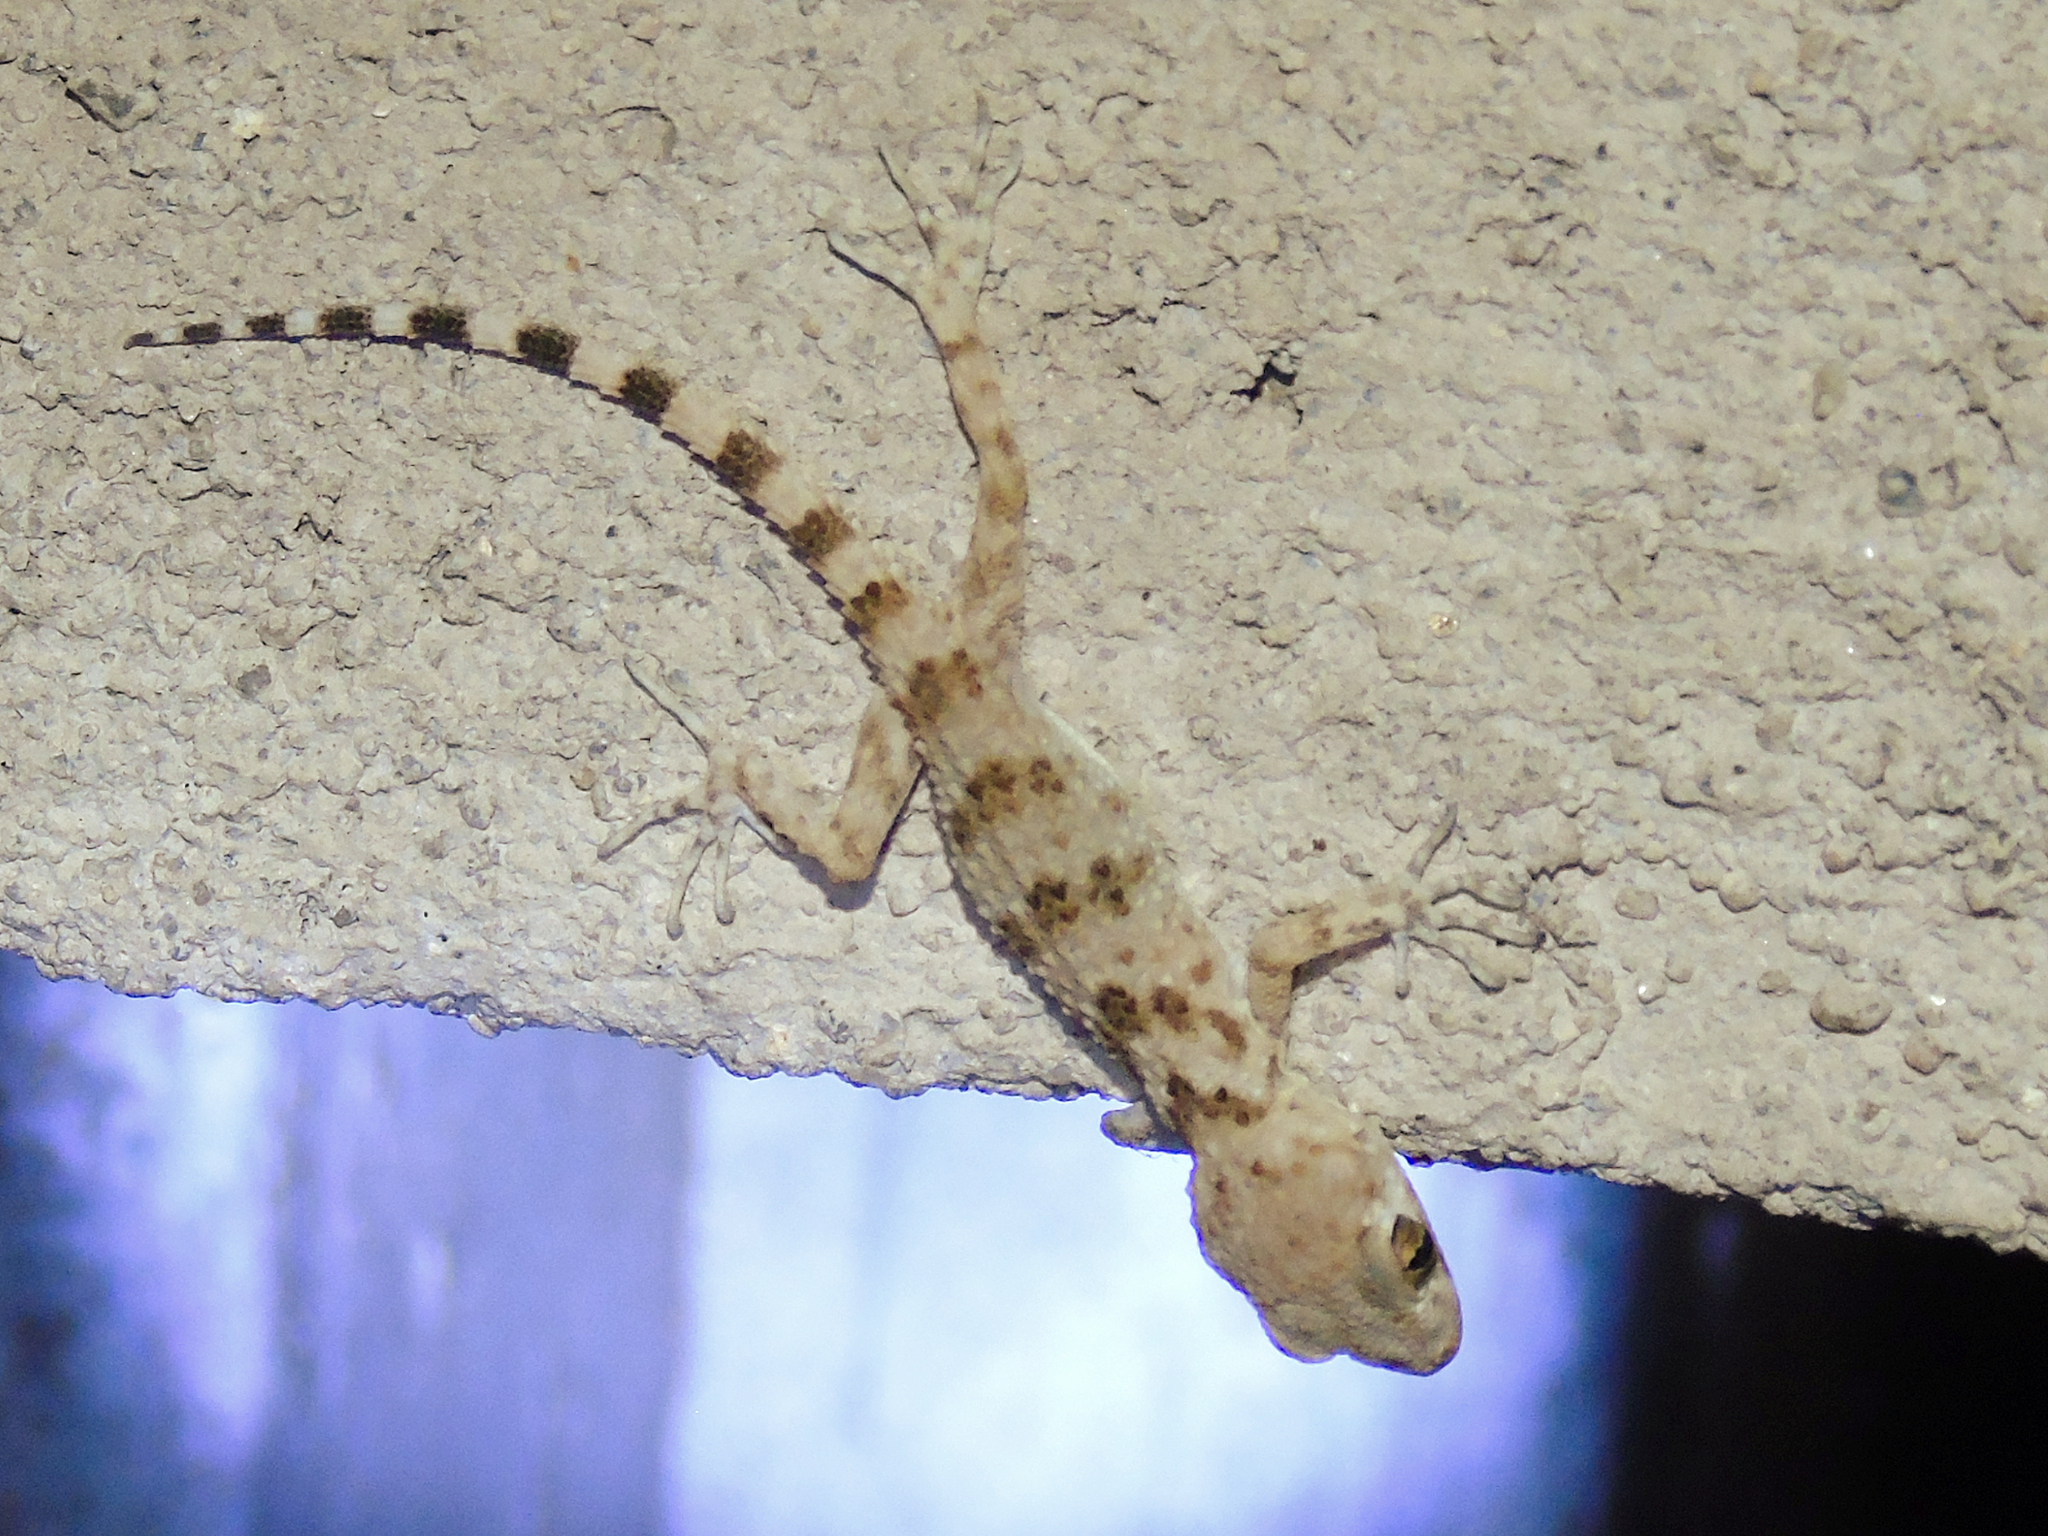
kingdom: Animalia
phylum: Chordata
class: Squamata
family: Gekkonidae
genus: Tenuidactylus
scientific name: Tenuidactylus caspius
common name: Caspian bent-toed gecko
